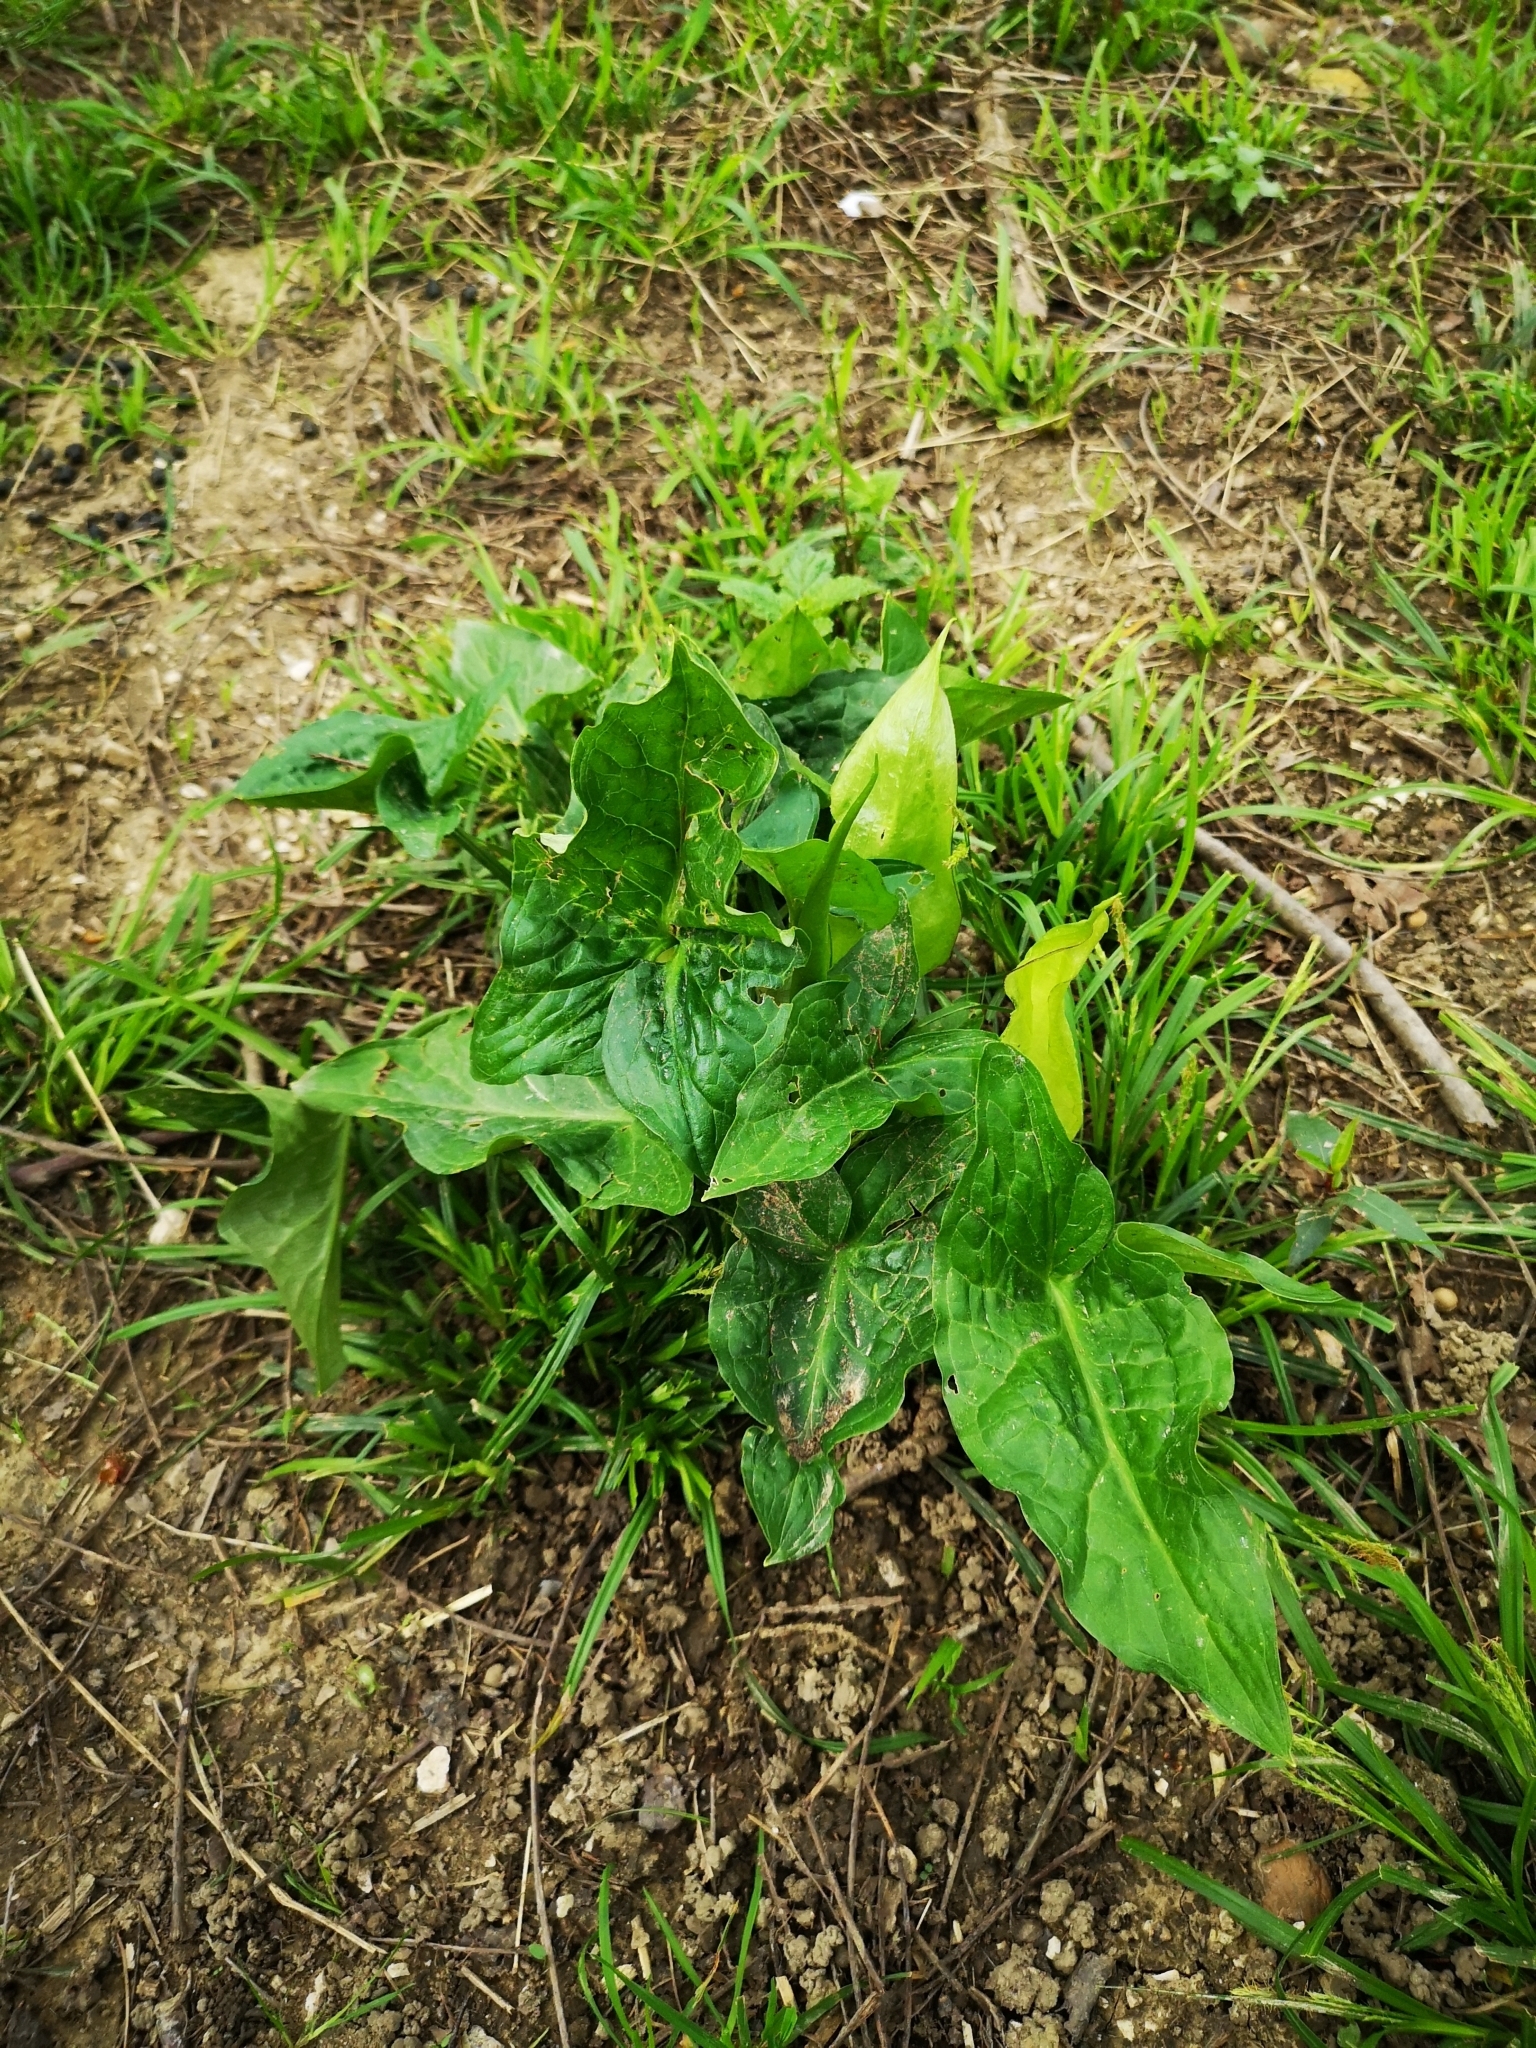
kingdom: Plantae
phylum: Tracheophyta
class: Liliopsida
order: Alismatales
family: Araceae
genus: Arum
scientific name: Arum italicum
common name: Italian lords-and-ladies
